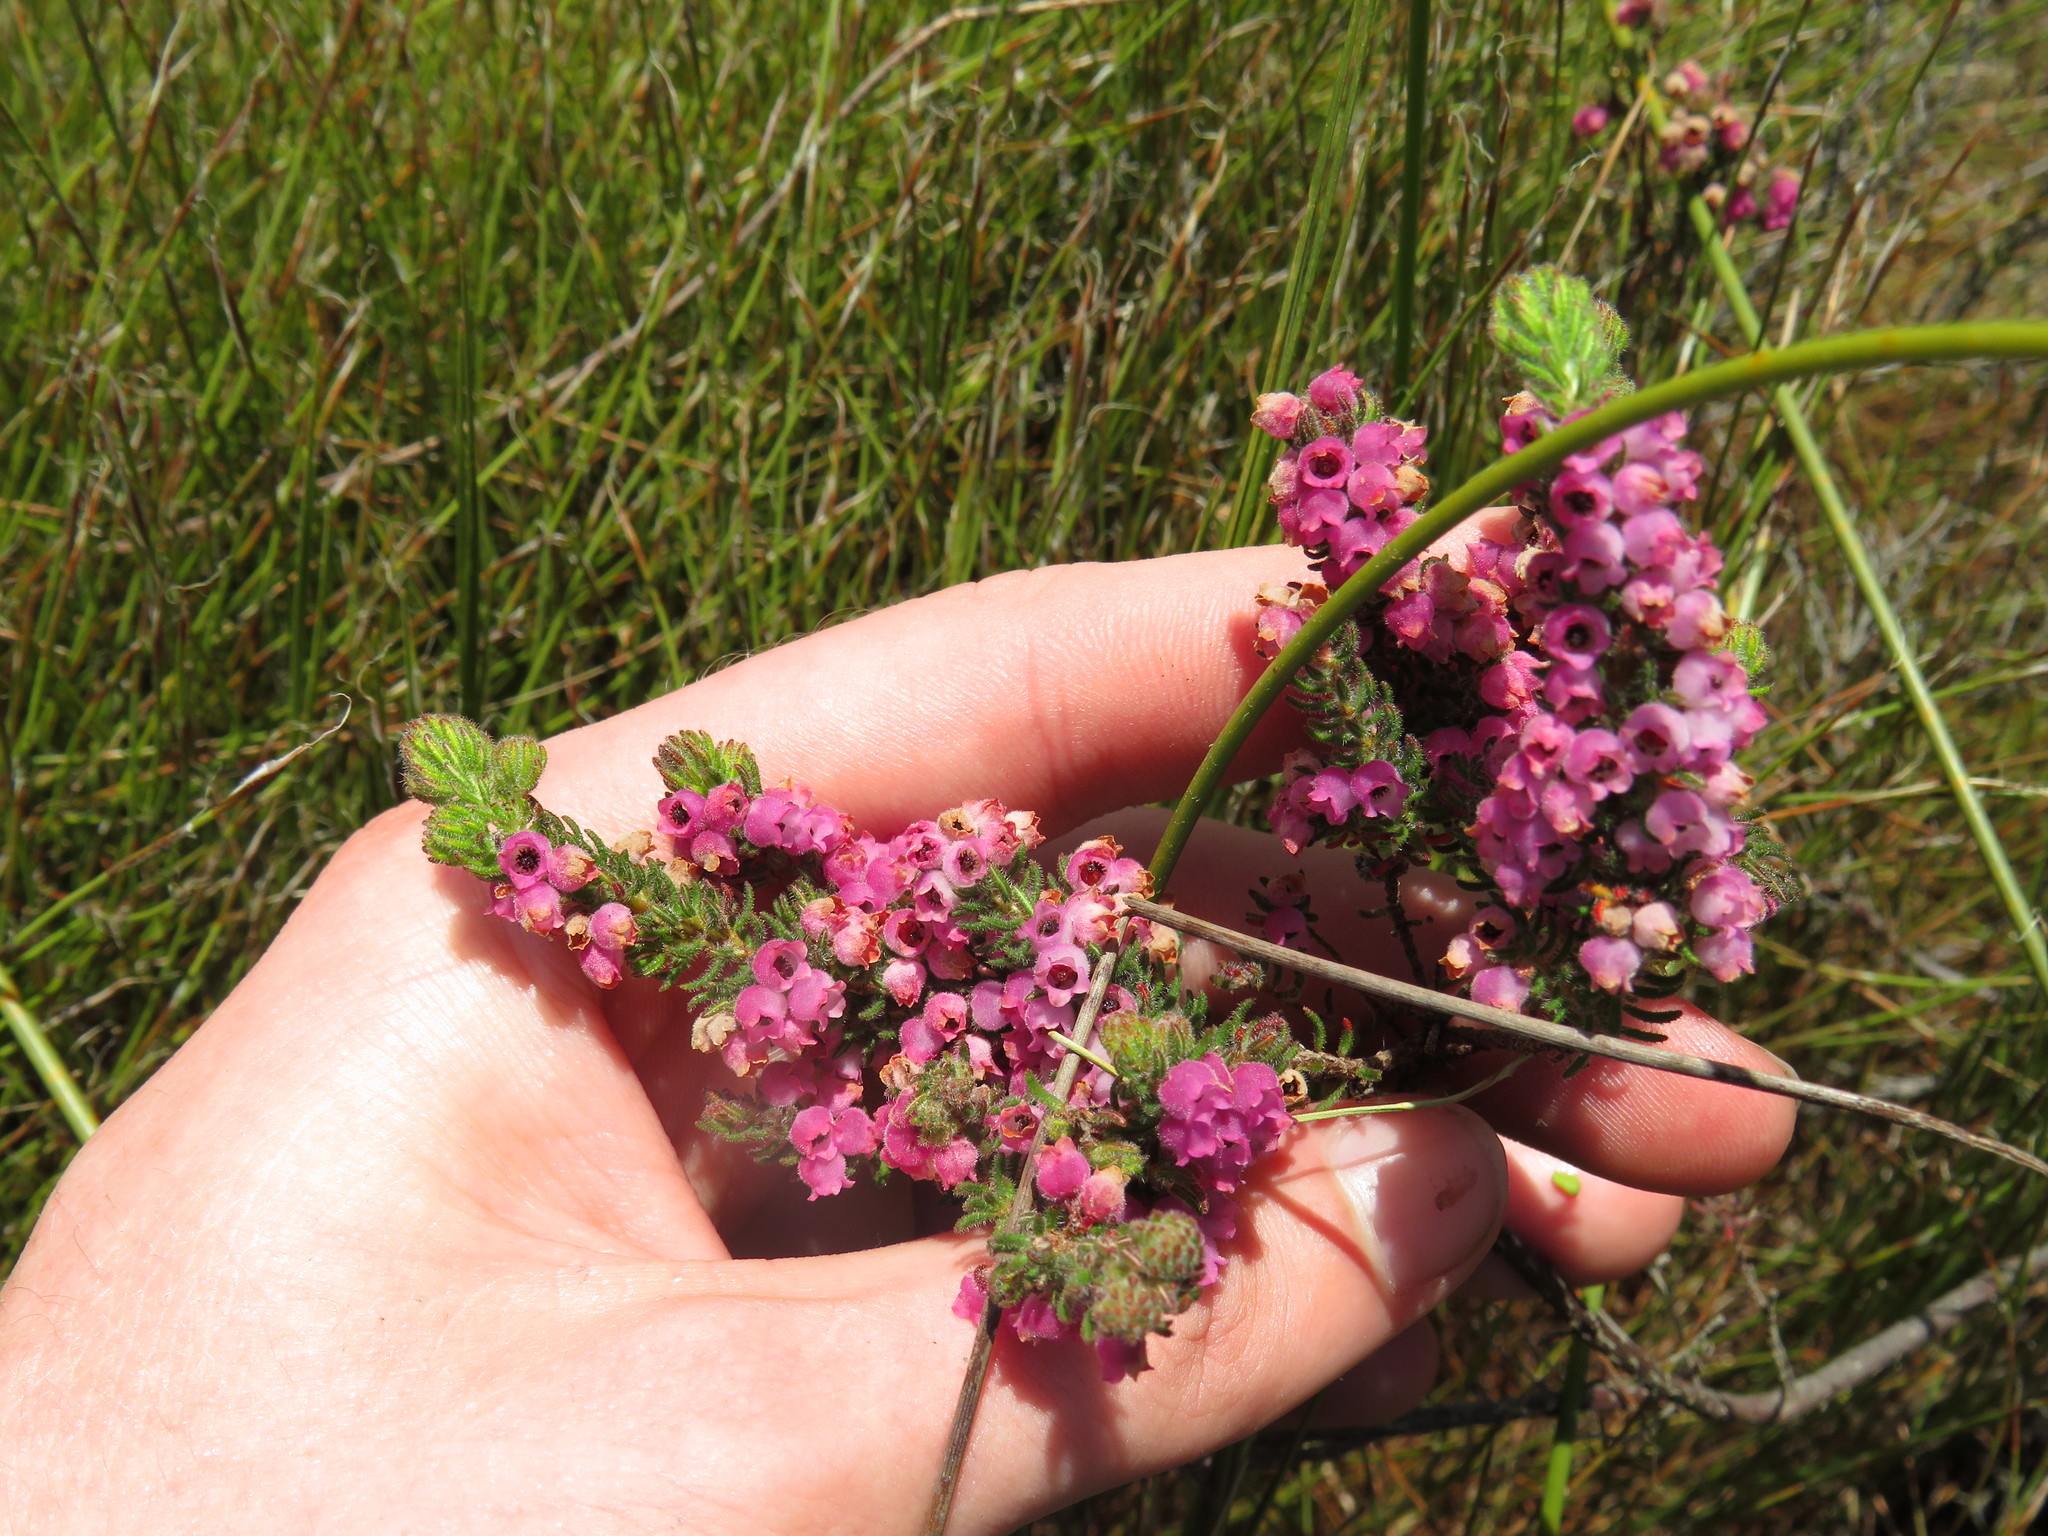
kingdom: Plantae
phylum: Tracheophyta
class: Magnoliopsida
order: Ericales
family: Ericaceae
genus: Erica
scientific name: Erica mollis
